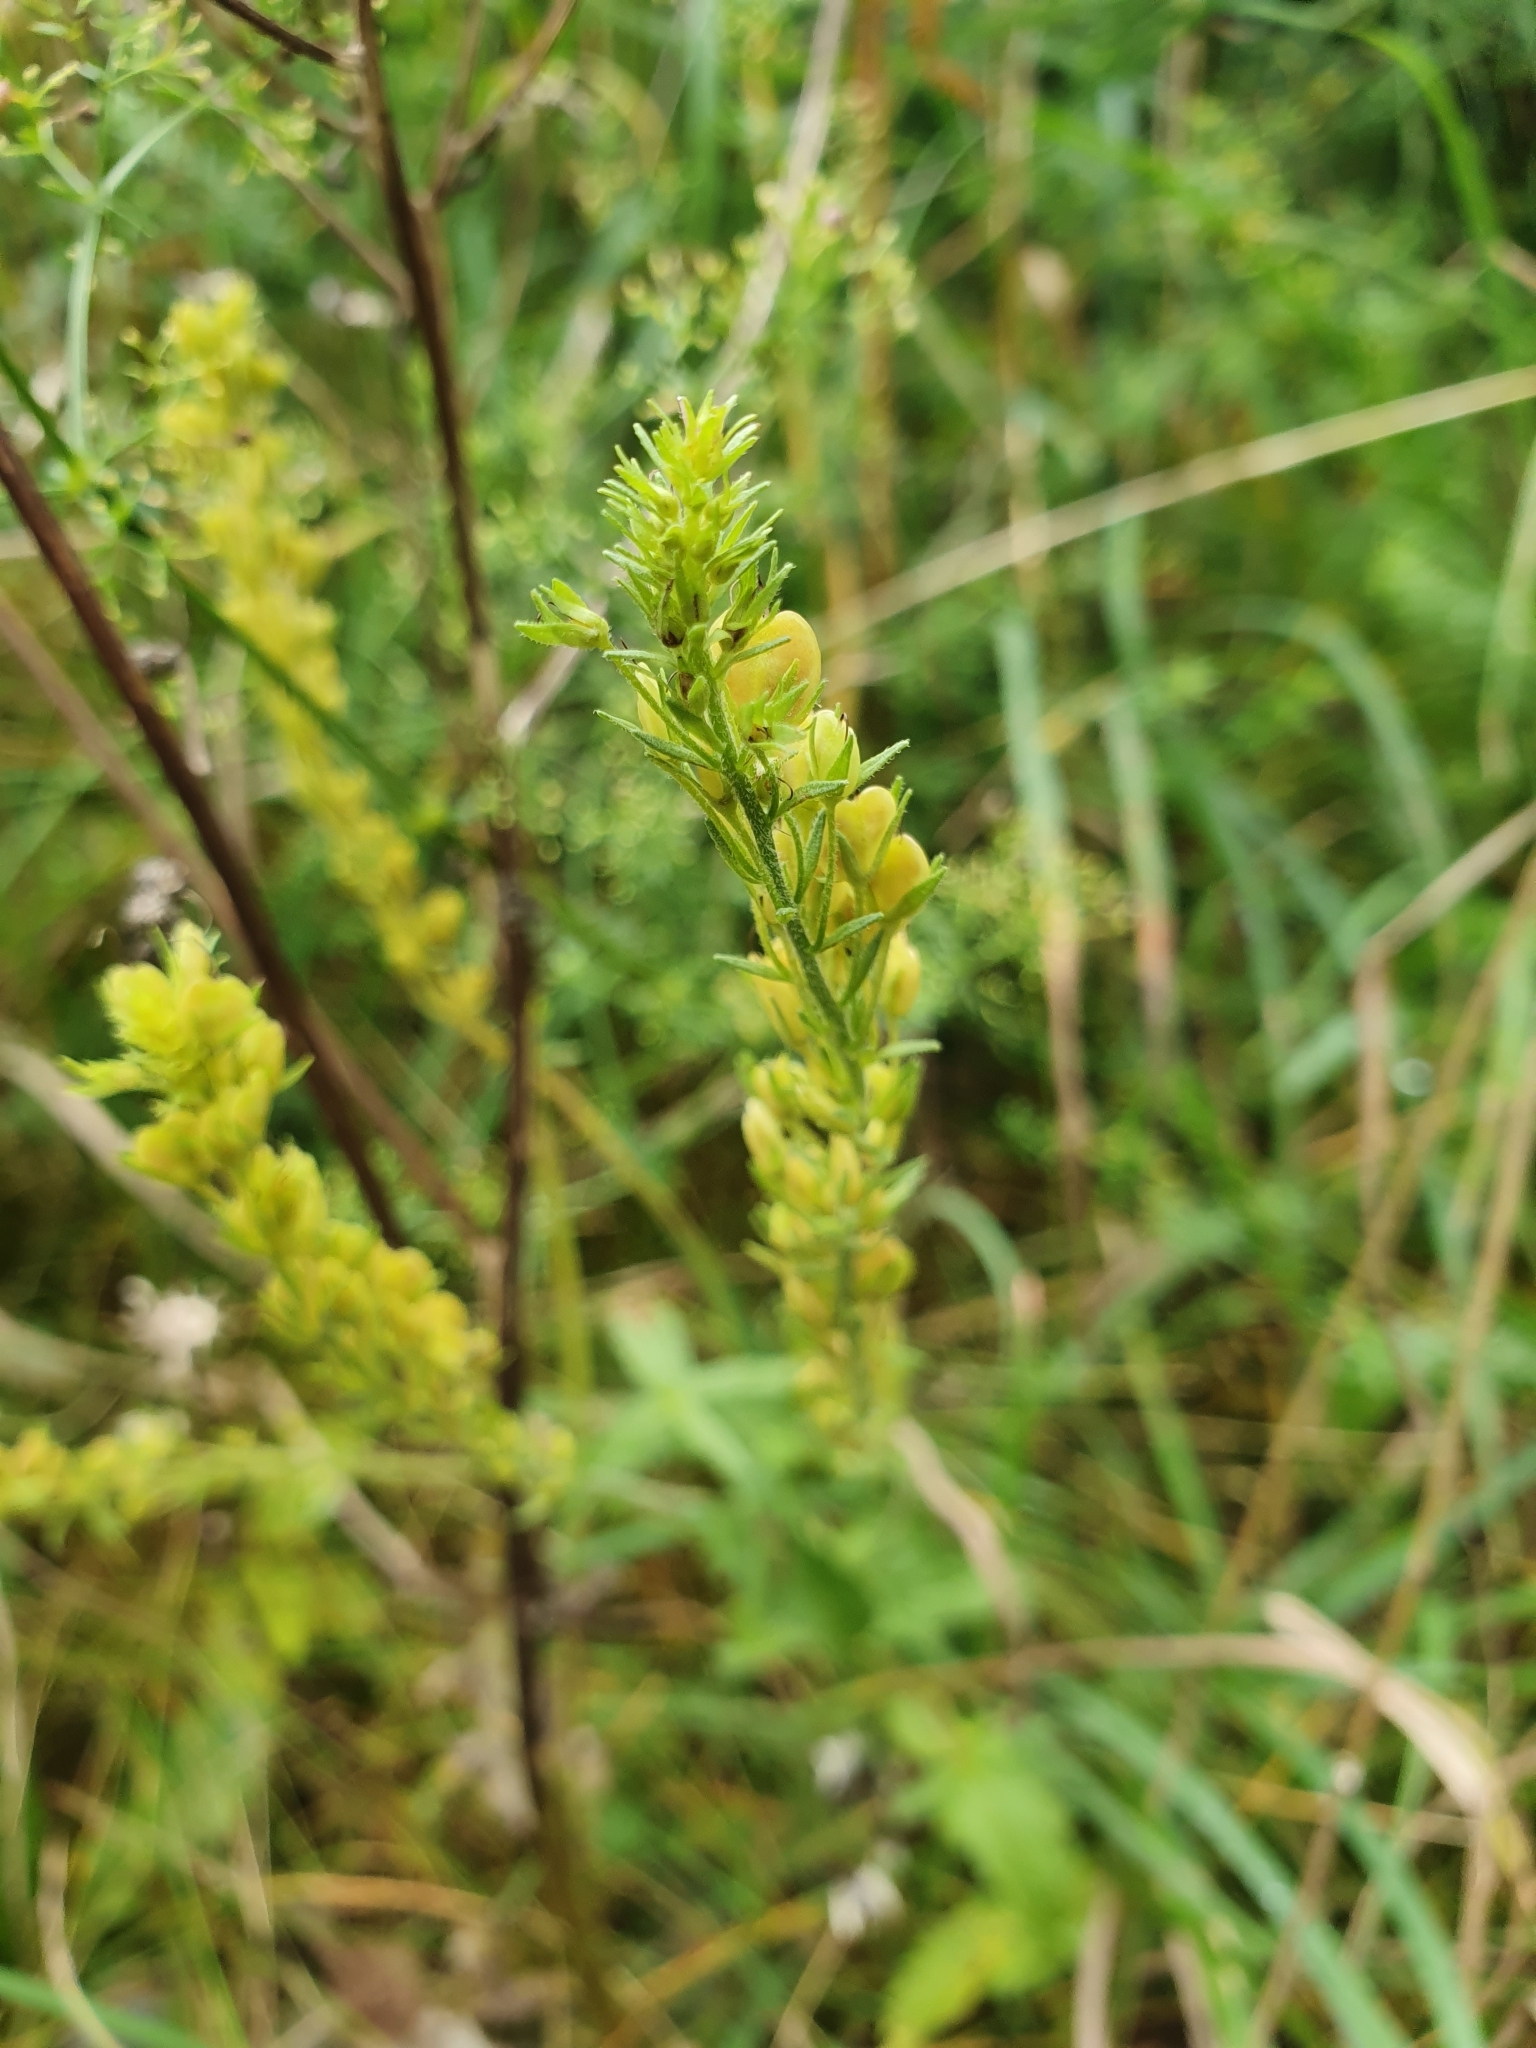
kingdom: Plantae
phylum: Tracheophyta
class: Magnoliopsida
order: Lamiales
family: Plantaginaceae
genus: Veronica
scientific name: Veronica teucrium
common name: Large speedwell
